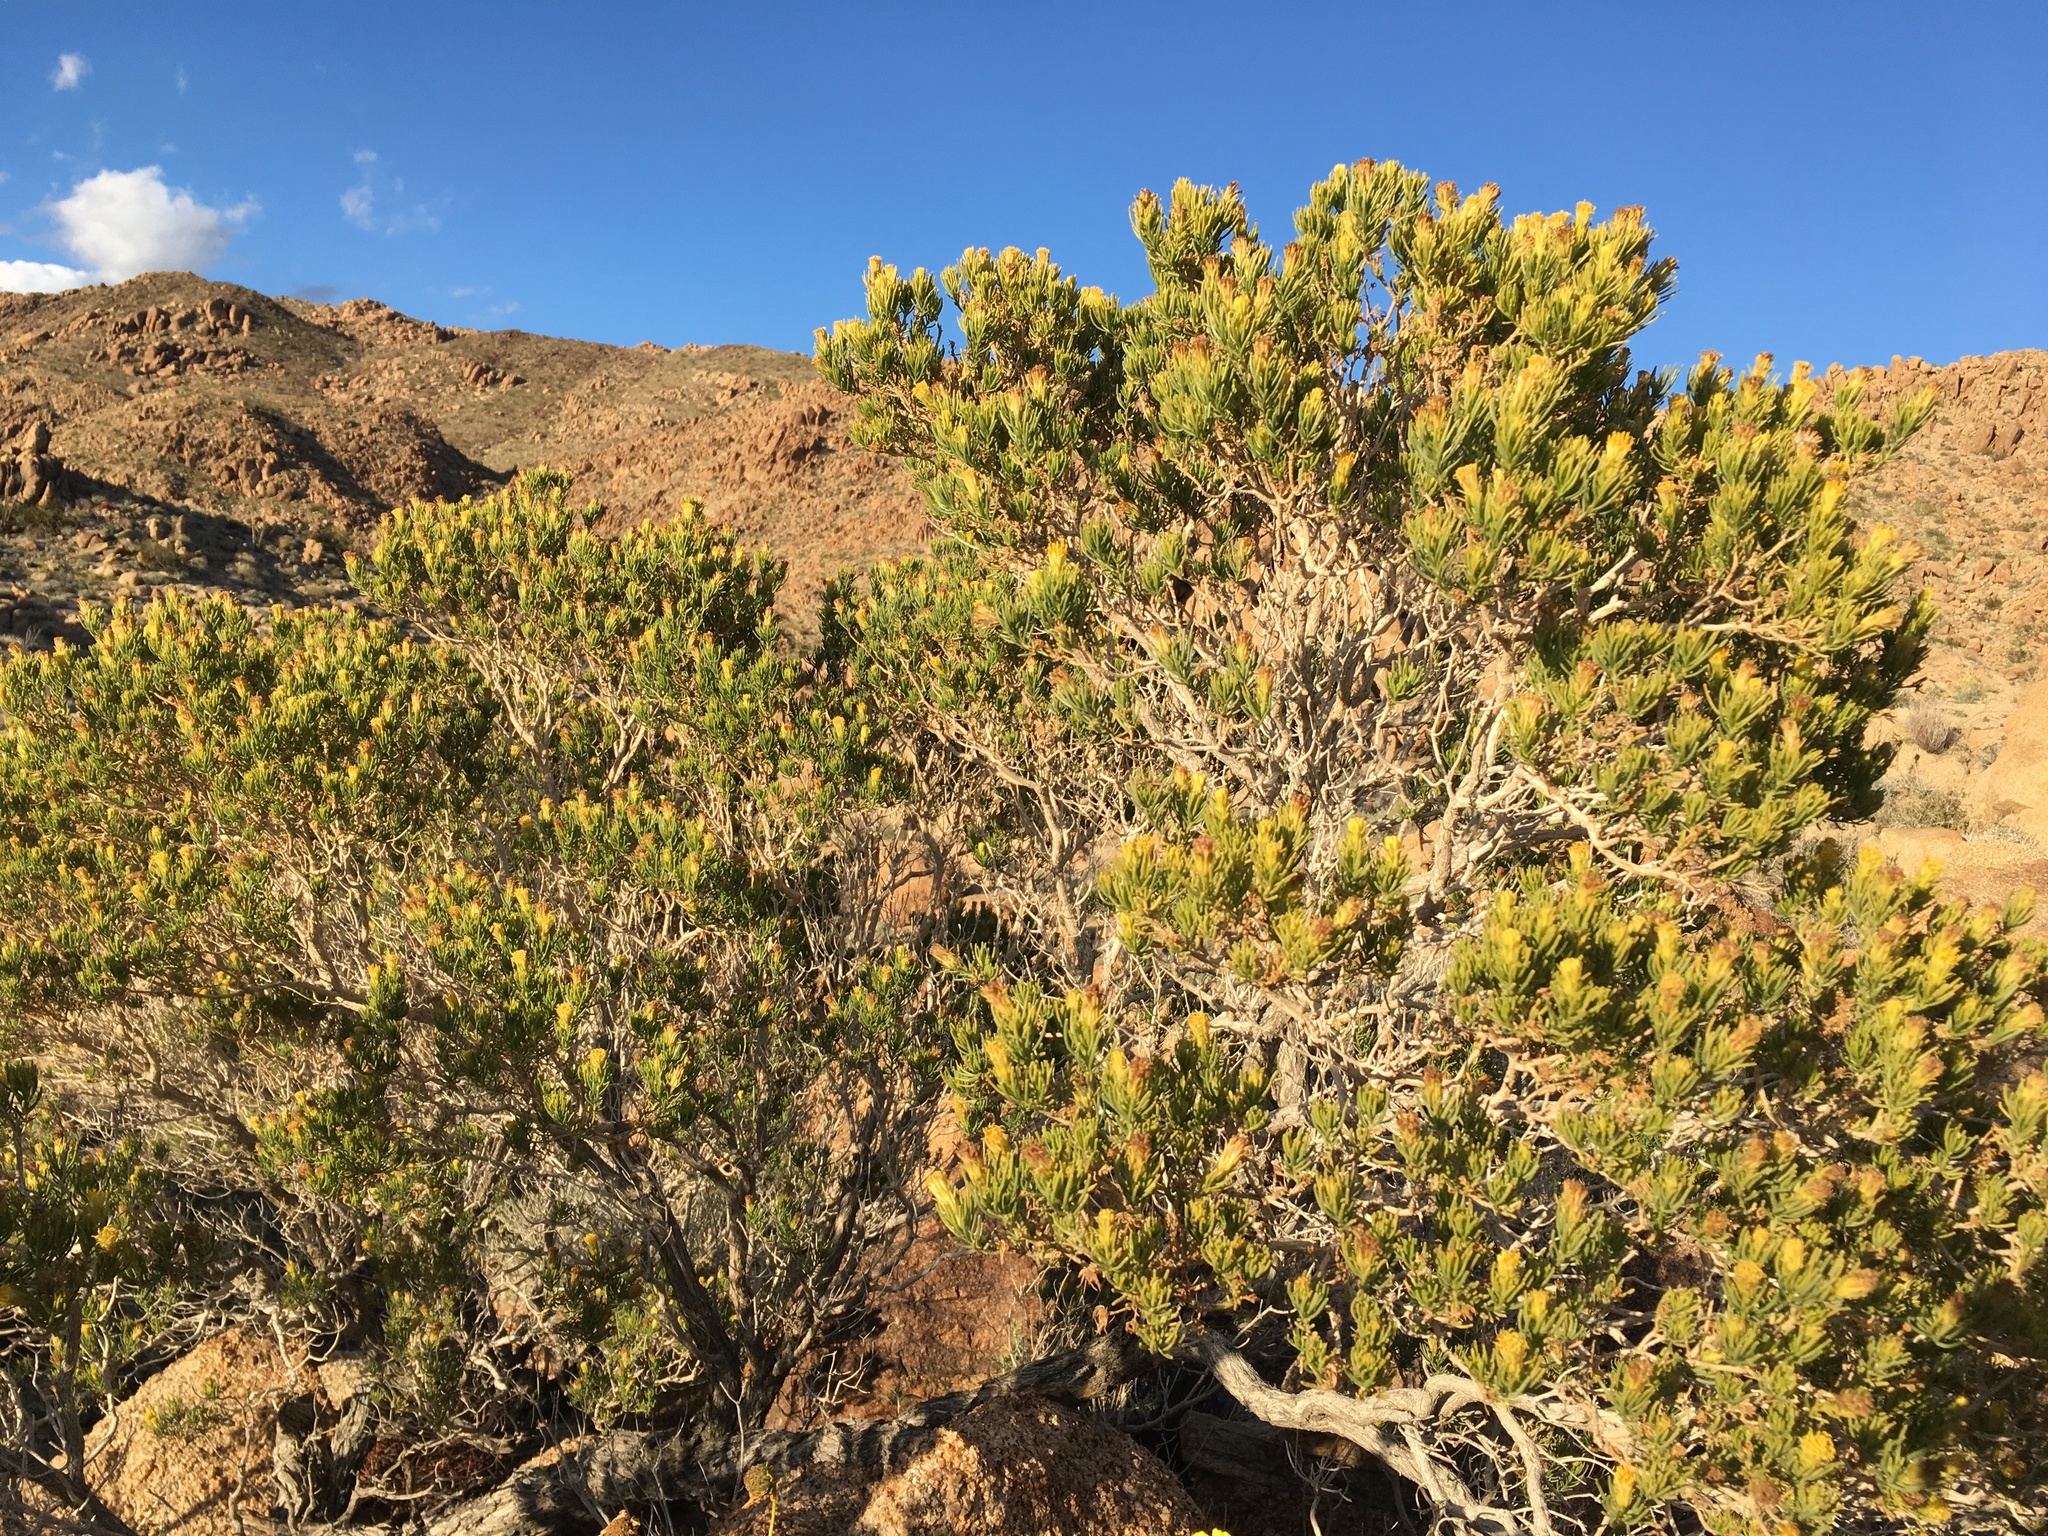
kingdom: Plantae
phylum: Tracheophyta
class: Magnoliopsida
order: Asterales
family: Asteraceae
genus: Peucephyllum
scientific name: Peucephyllum schottii
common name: Pygmy-cedar
